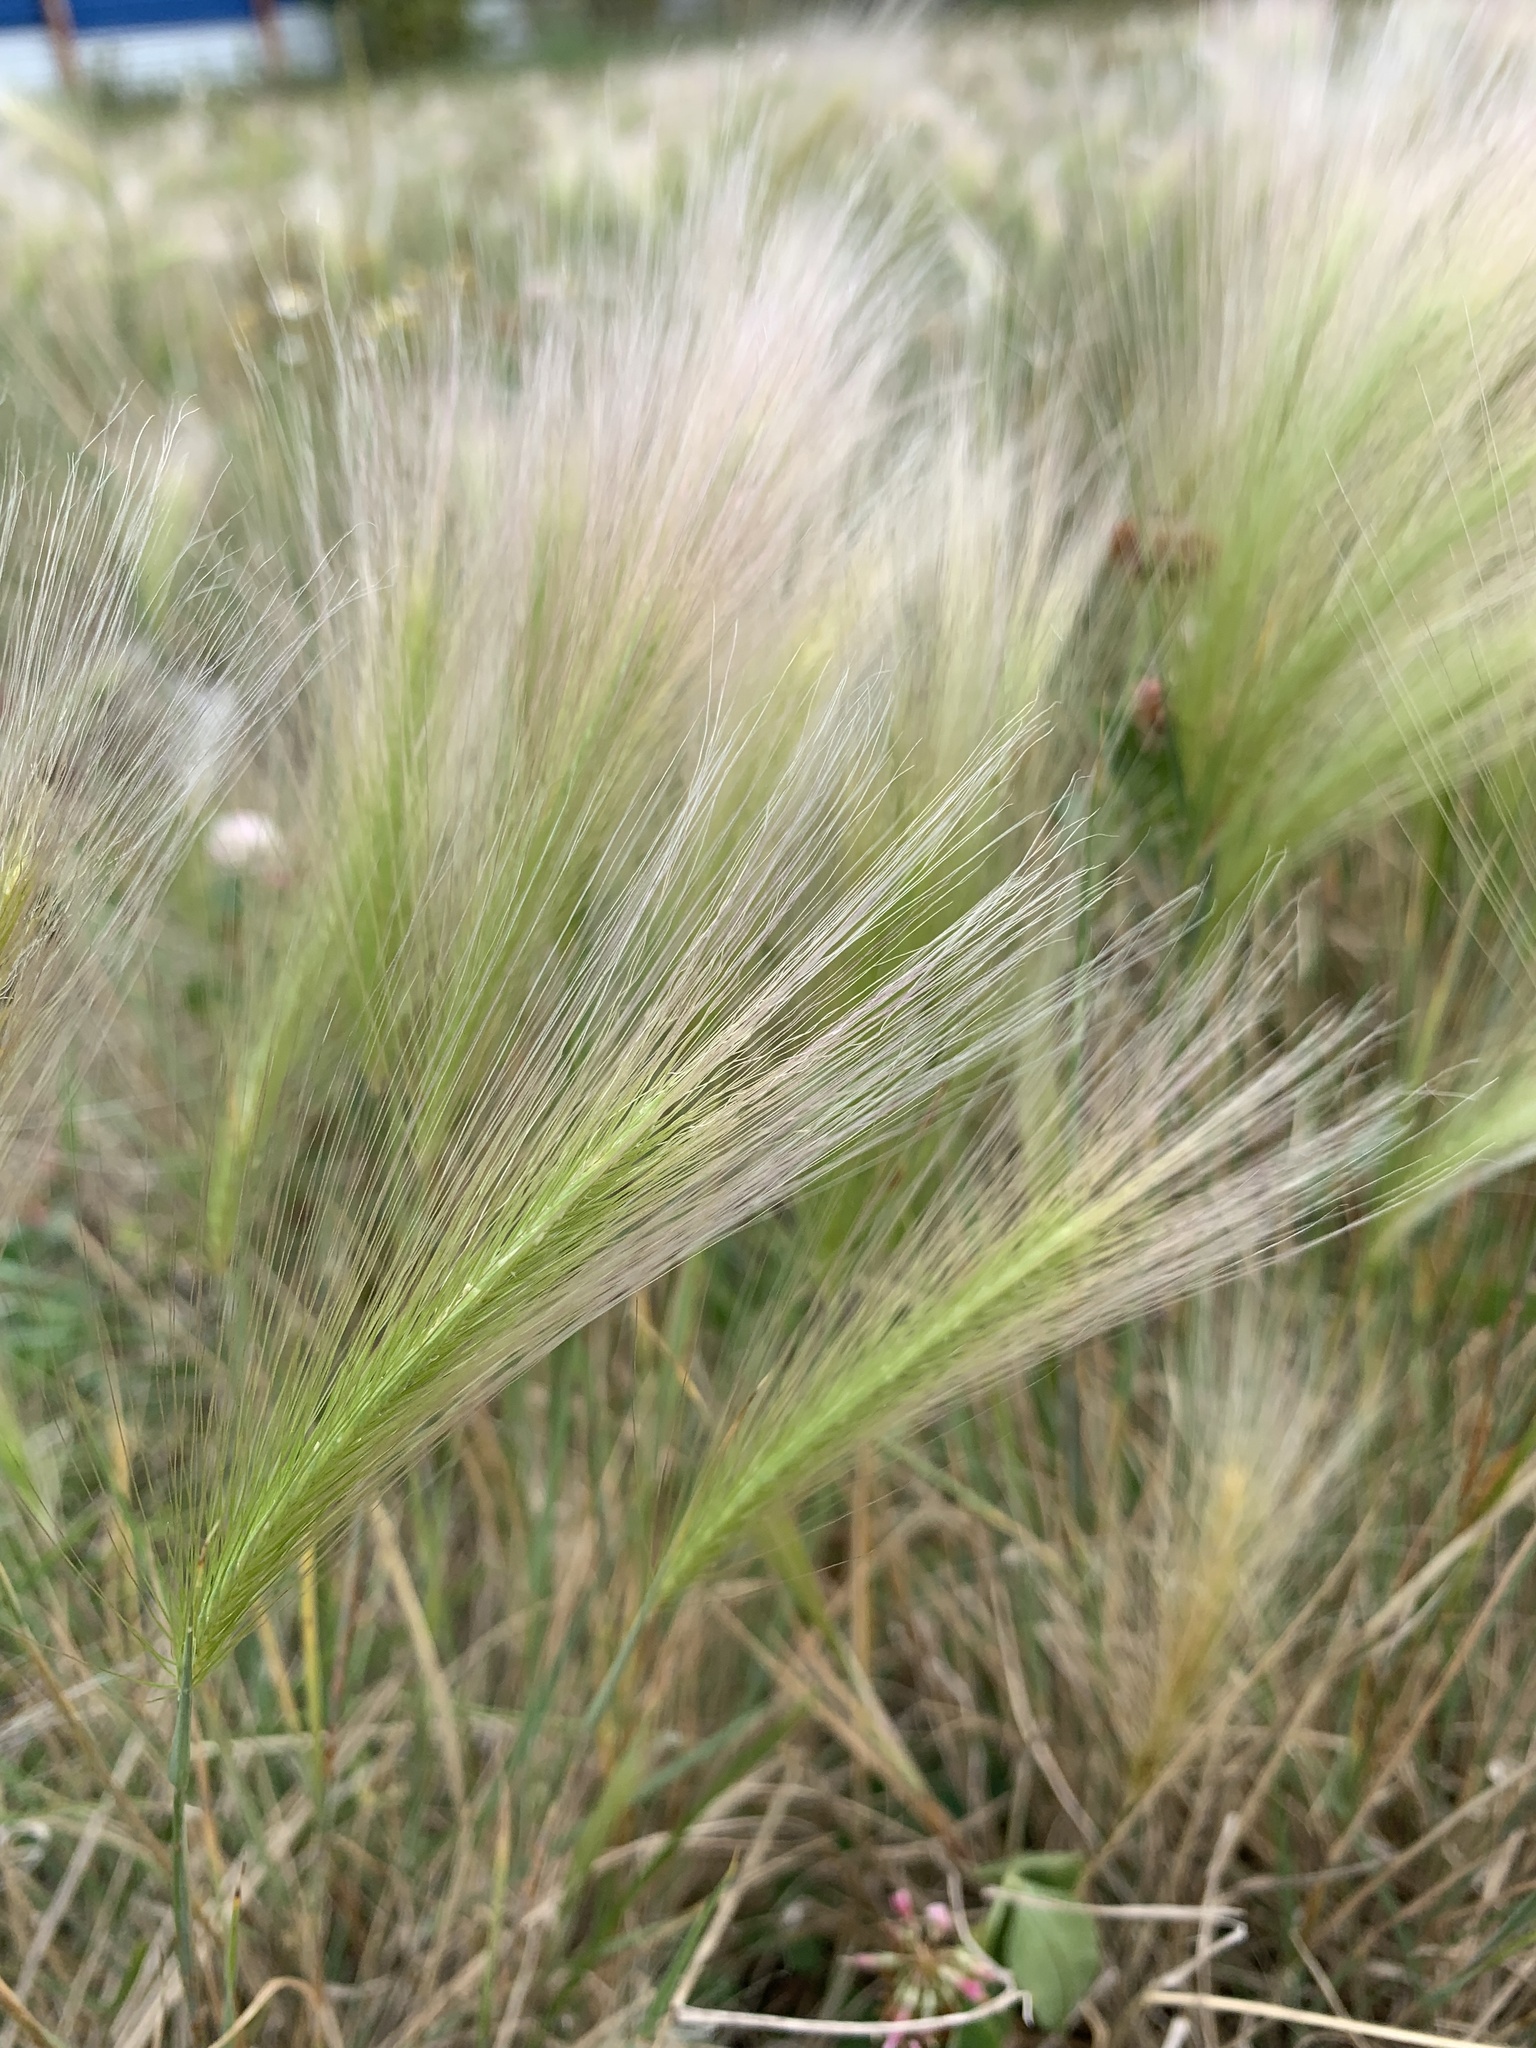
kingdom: Plantae
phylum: Tracheophyta
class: Liliopsida
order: Poales
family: Poaceae
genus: Hordeum
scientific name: Hordeum jubatum
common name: Foxtail barley
